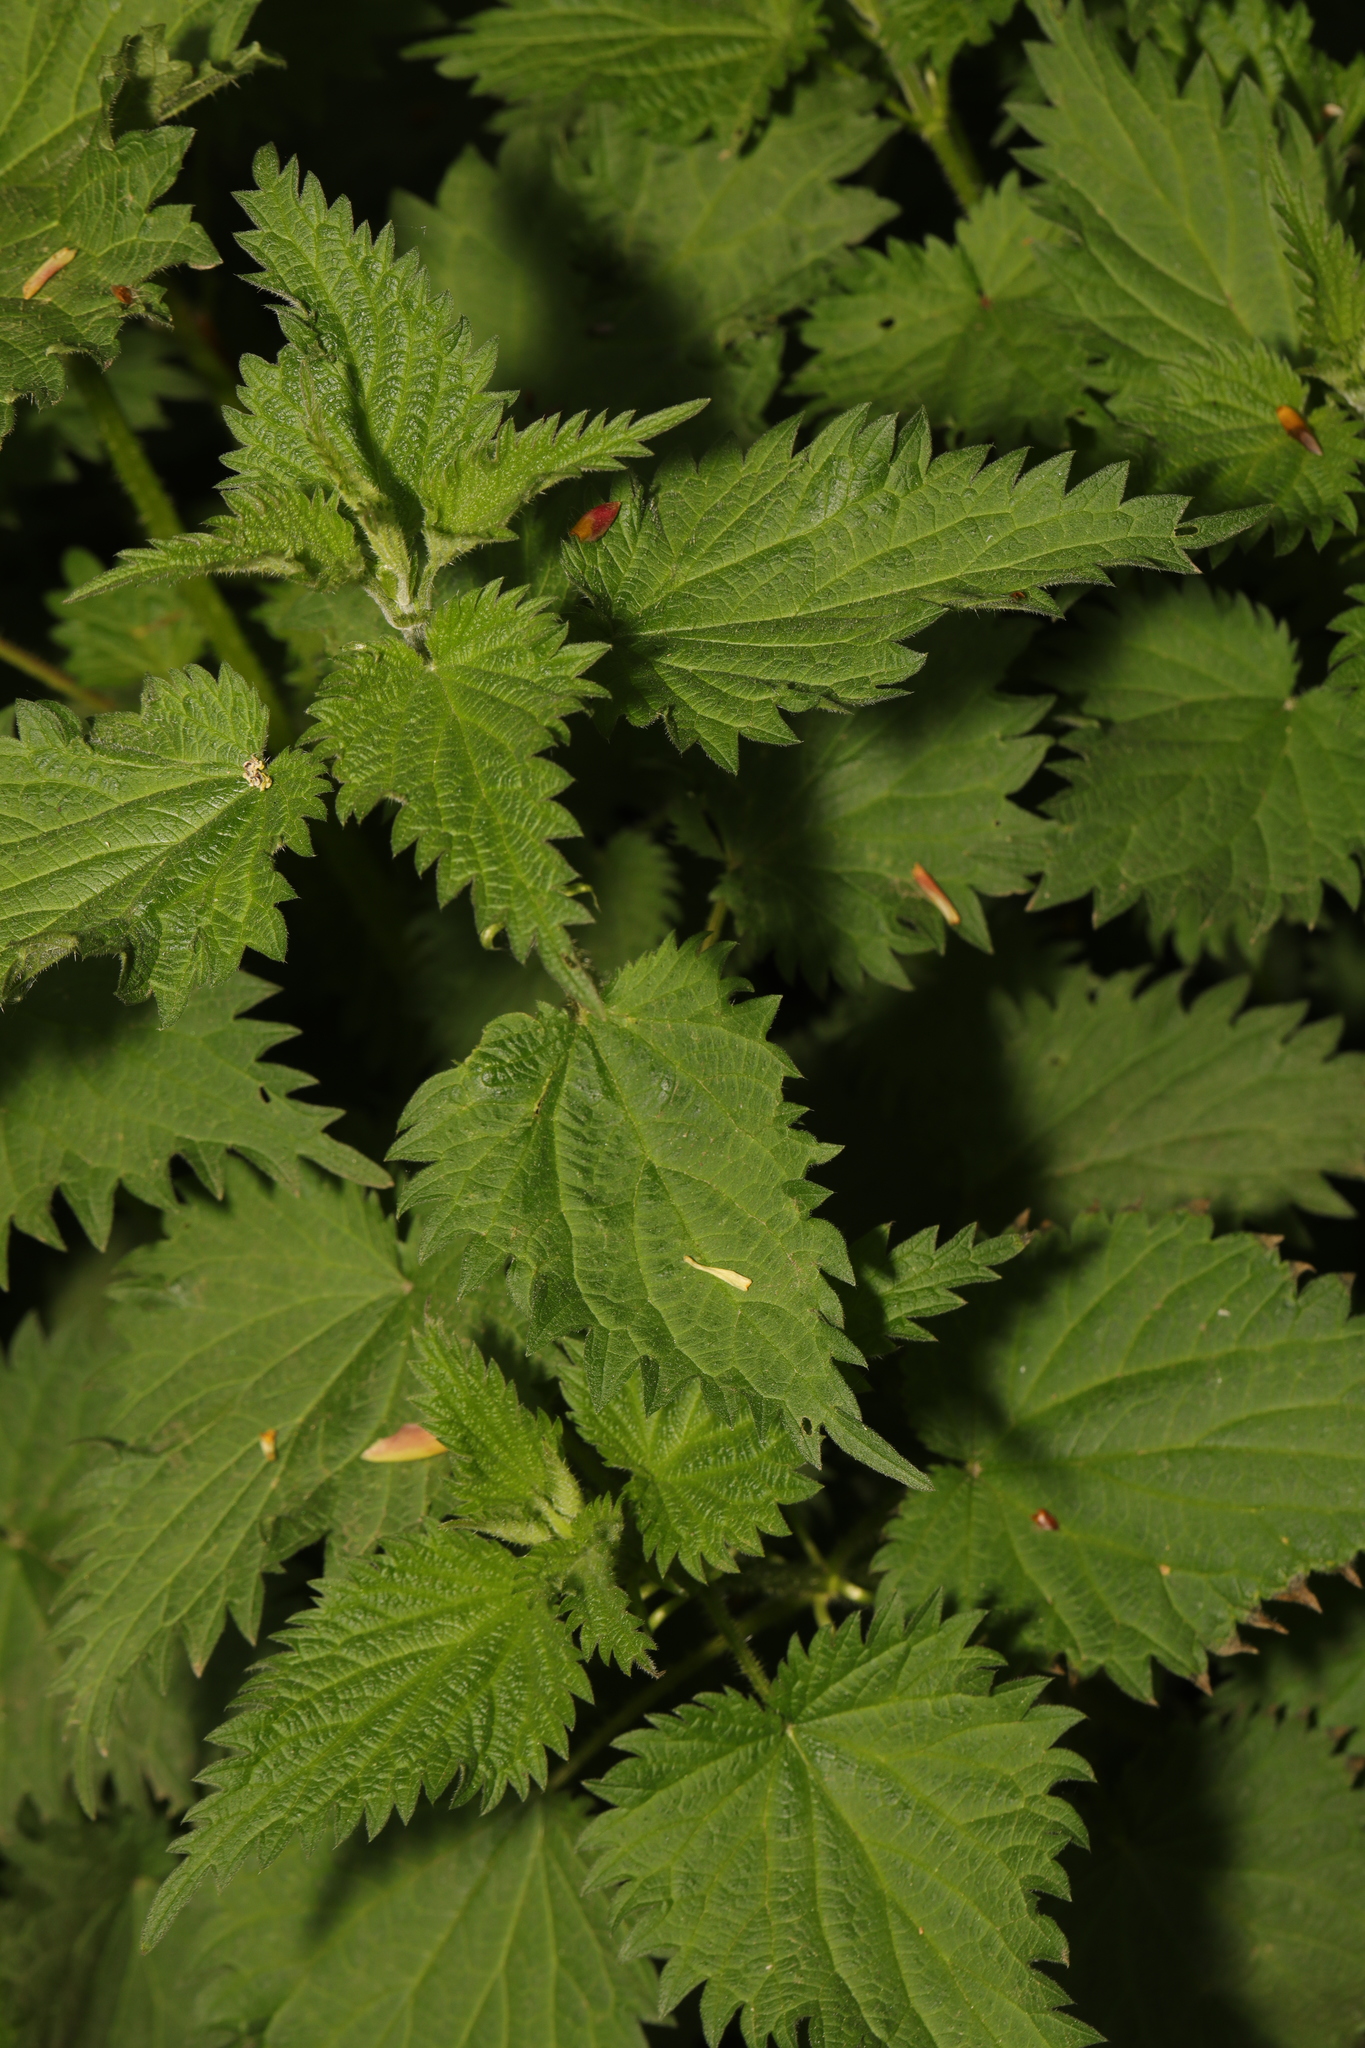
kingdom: Plantae
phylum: Tracheophyta
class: Magnoliopsida
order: Rosales
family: Urticaceae
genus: Urtica
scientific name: Urtica dioica
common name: Common nettle
